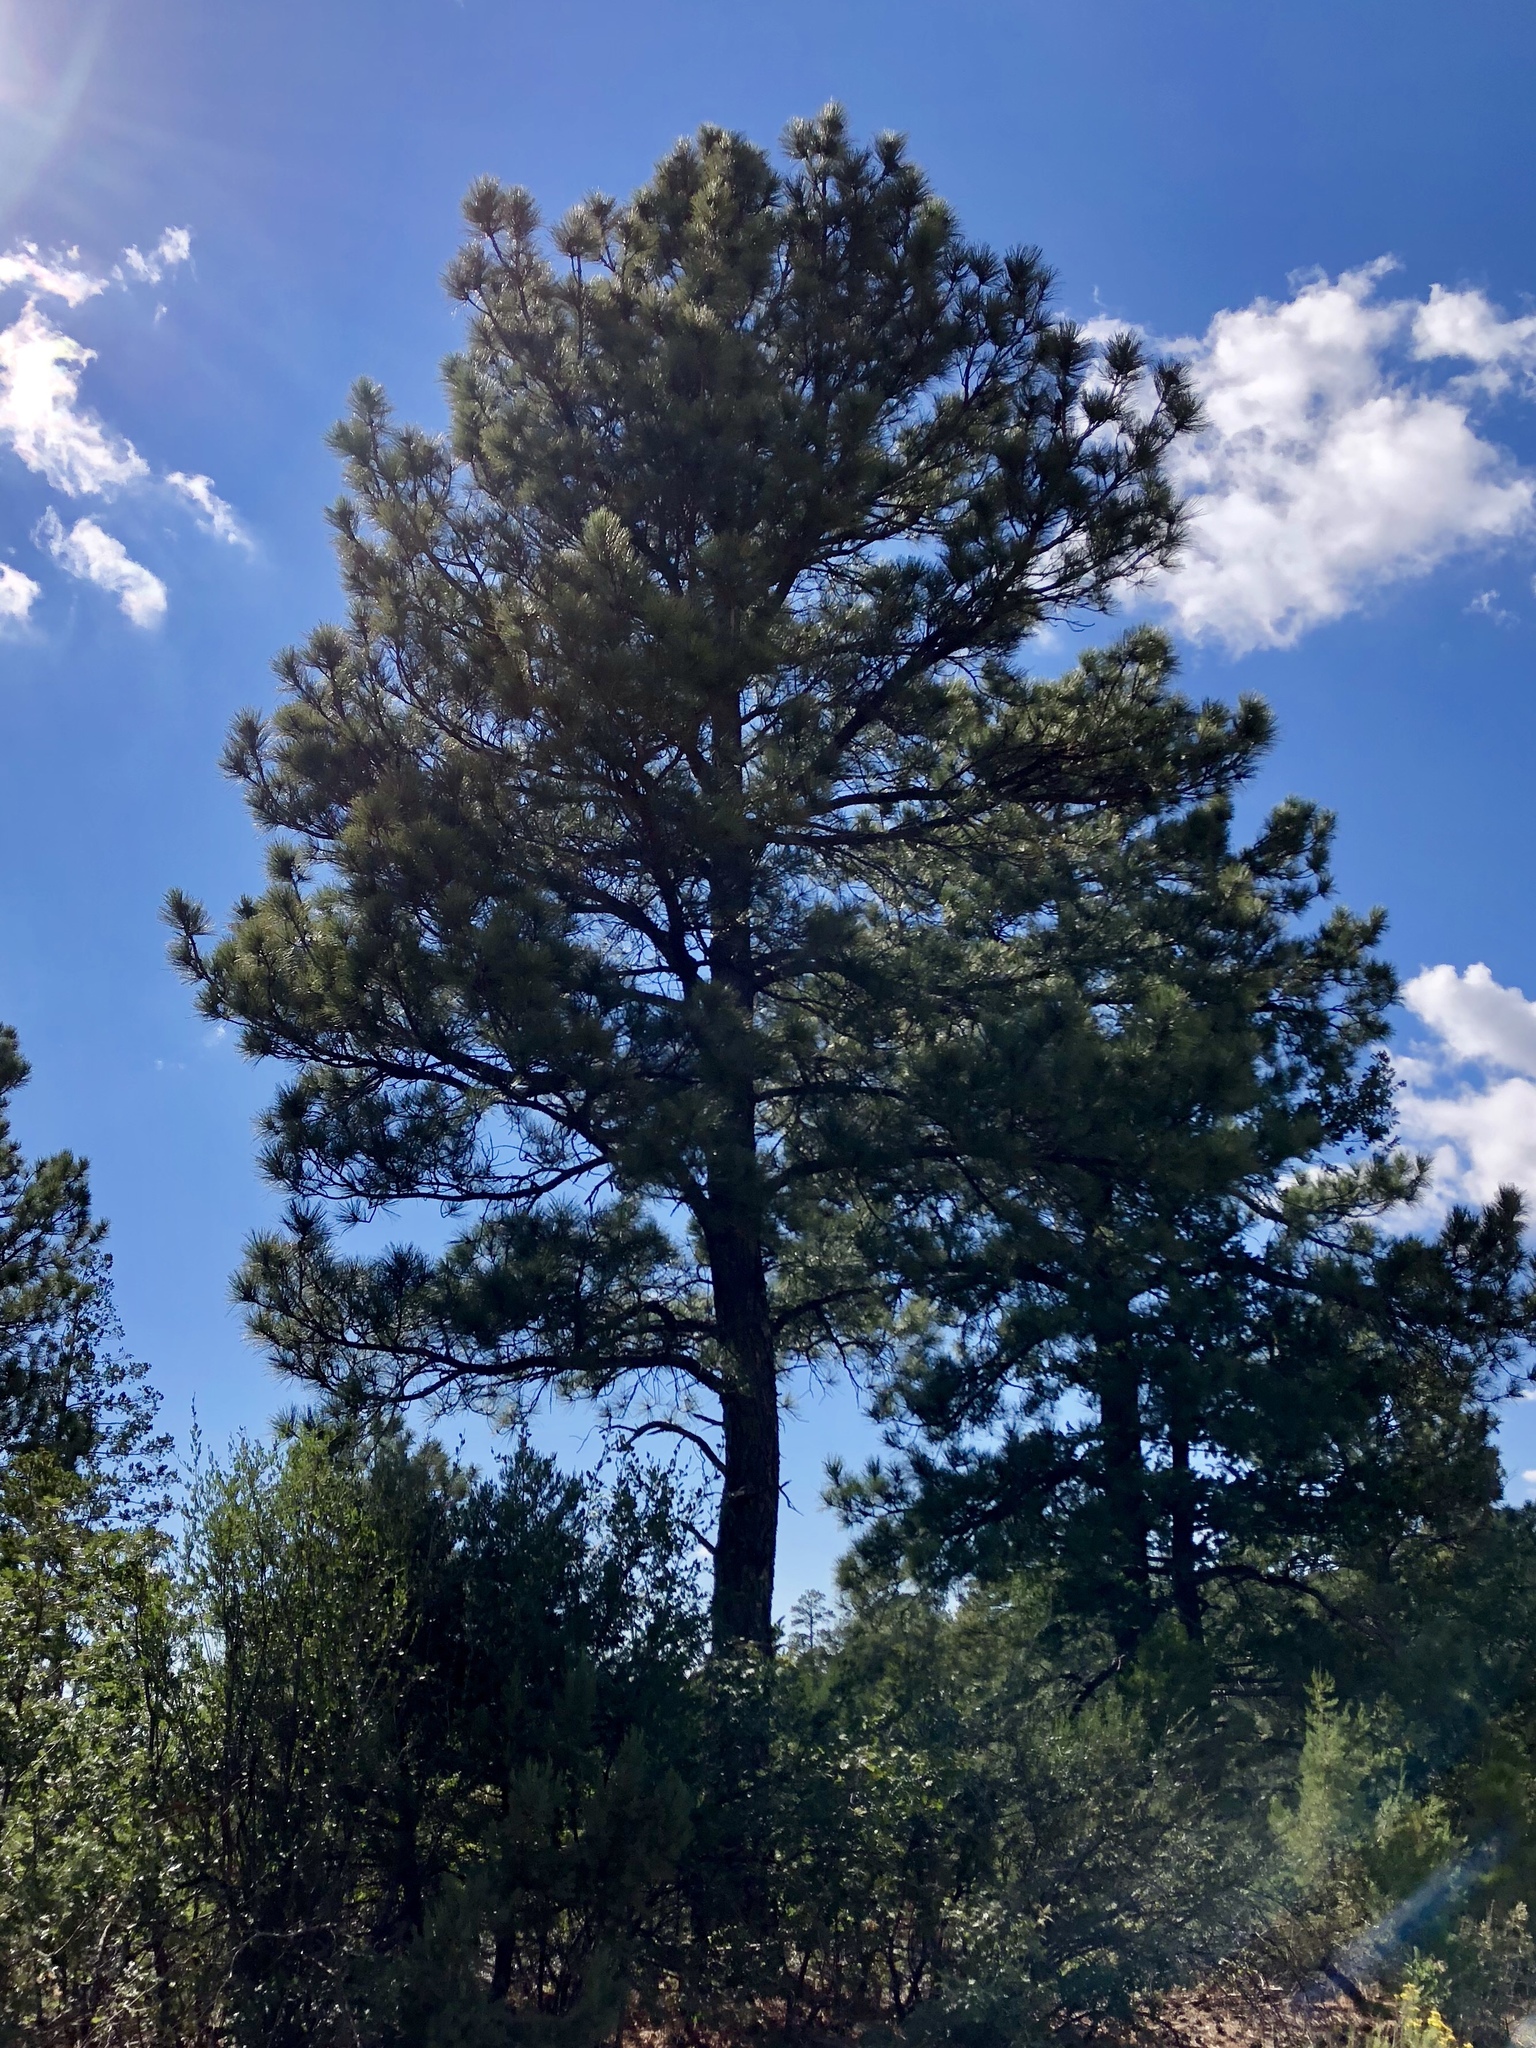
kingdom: Plantae
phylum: Tracheophyta
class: Pinopsida
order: Pinales
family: Pinaceae
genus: Pinus
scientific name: Pinus ponderosa
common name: Western yellow-pine
